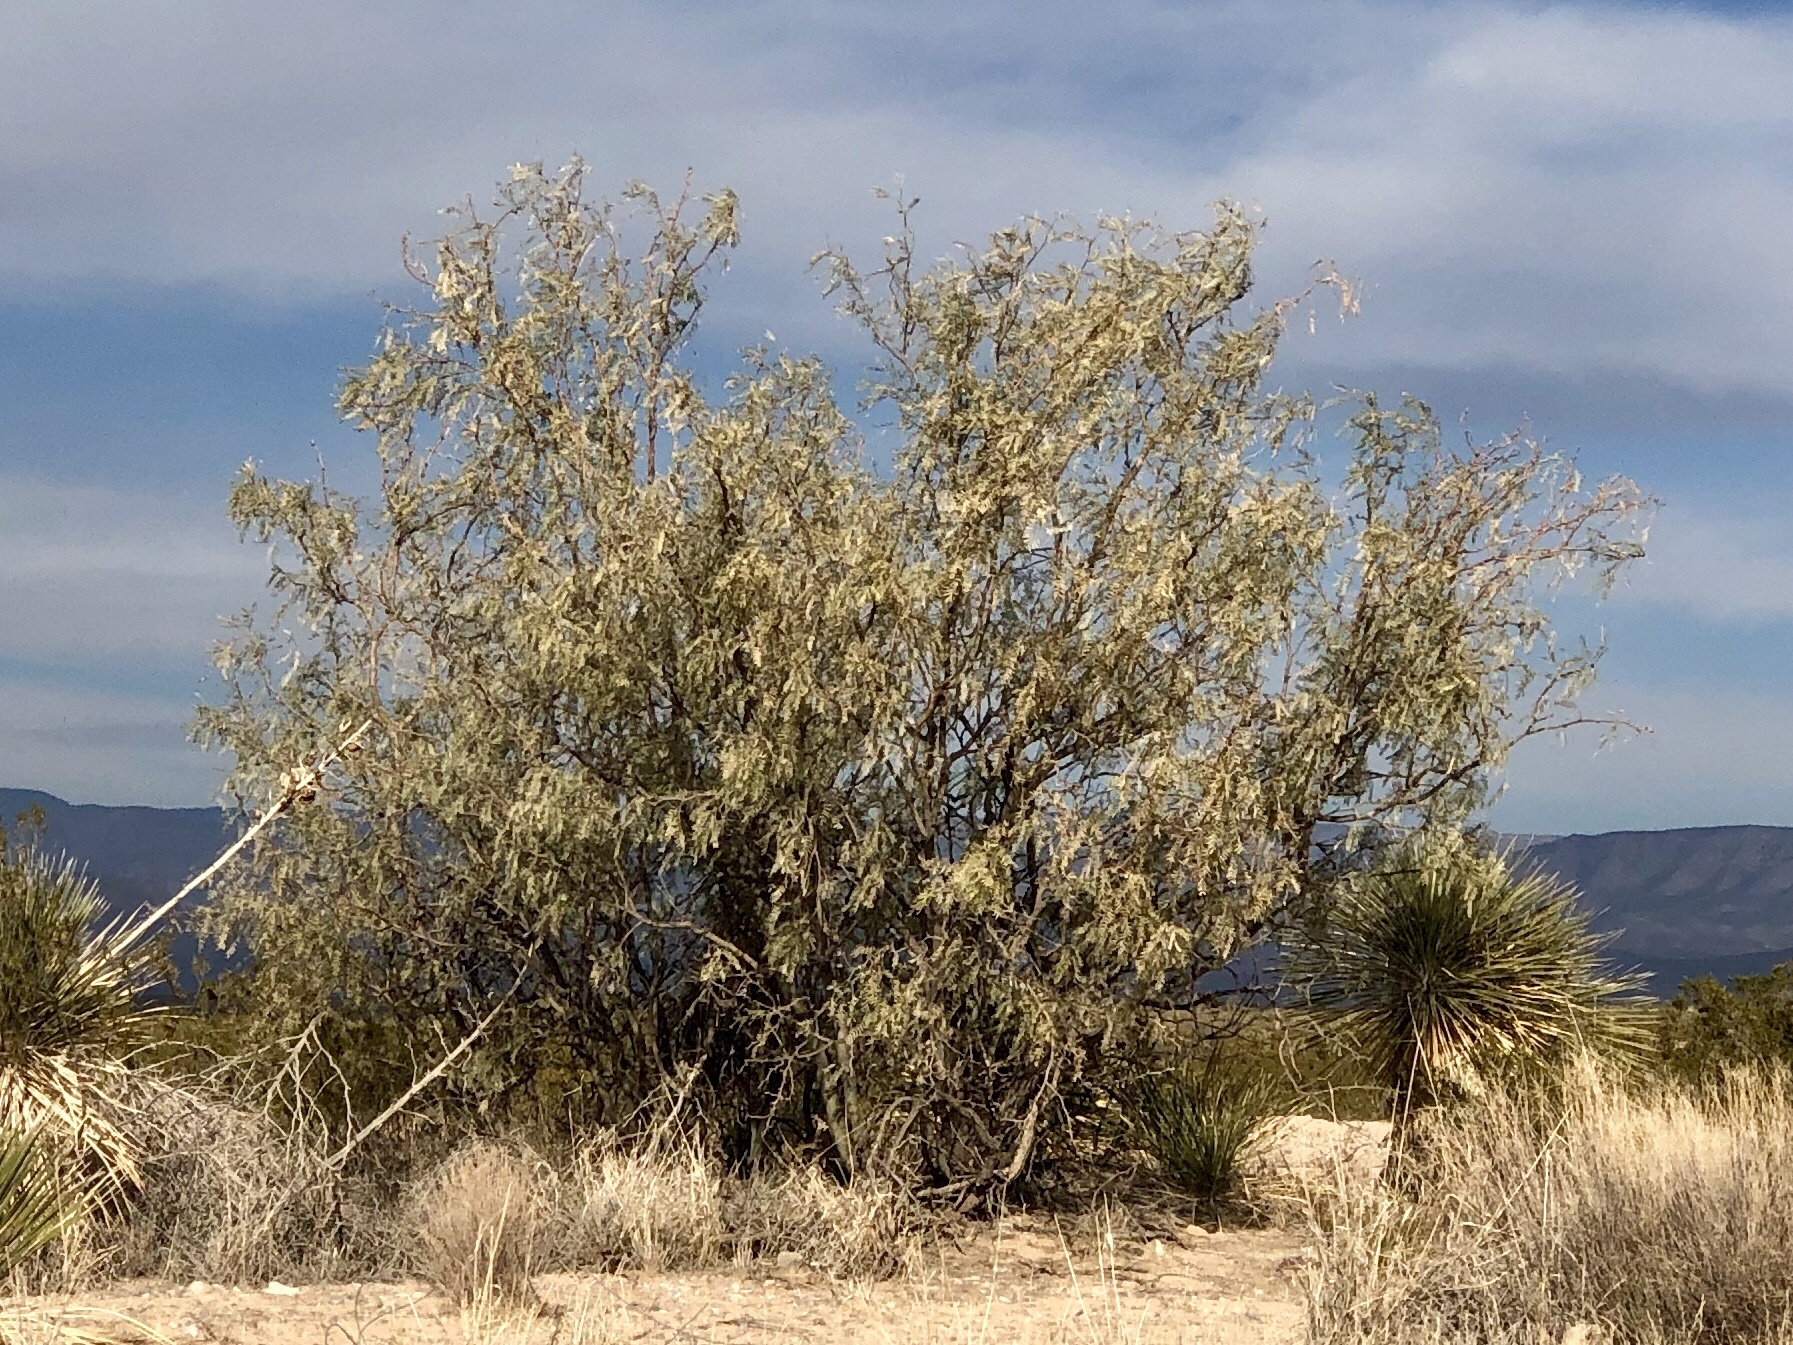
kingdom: Plantae
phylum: Tracheophyta
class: Magnoliopsida
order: Fabales
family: Fabaceae
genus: Prosopis
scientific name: Prosopis glandulosa
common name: Honey mesquite
